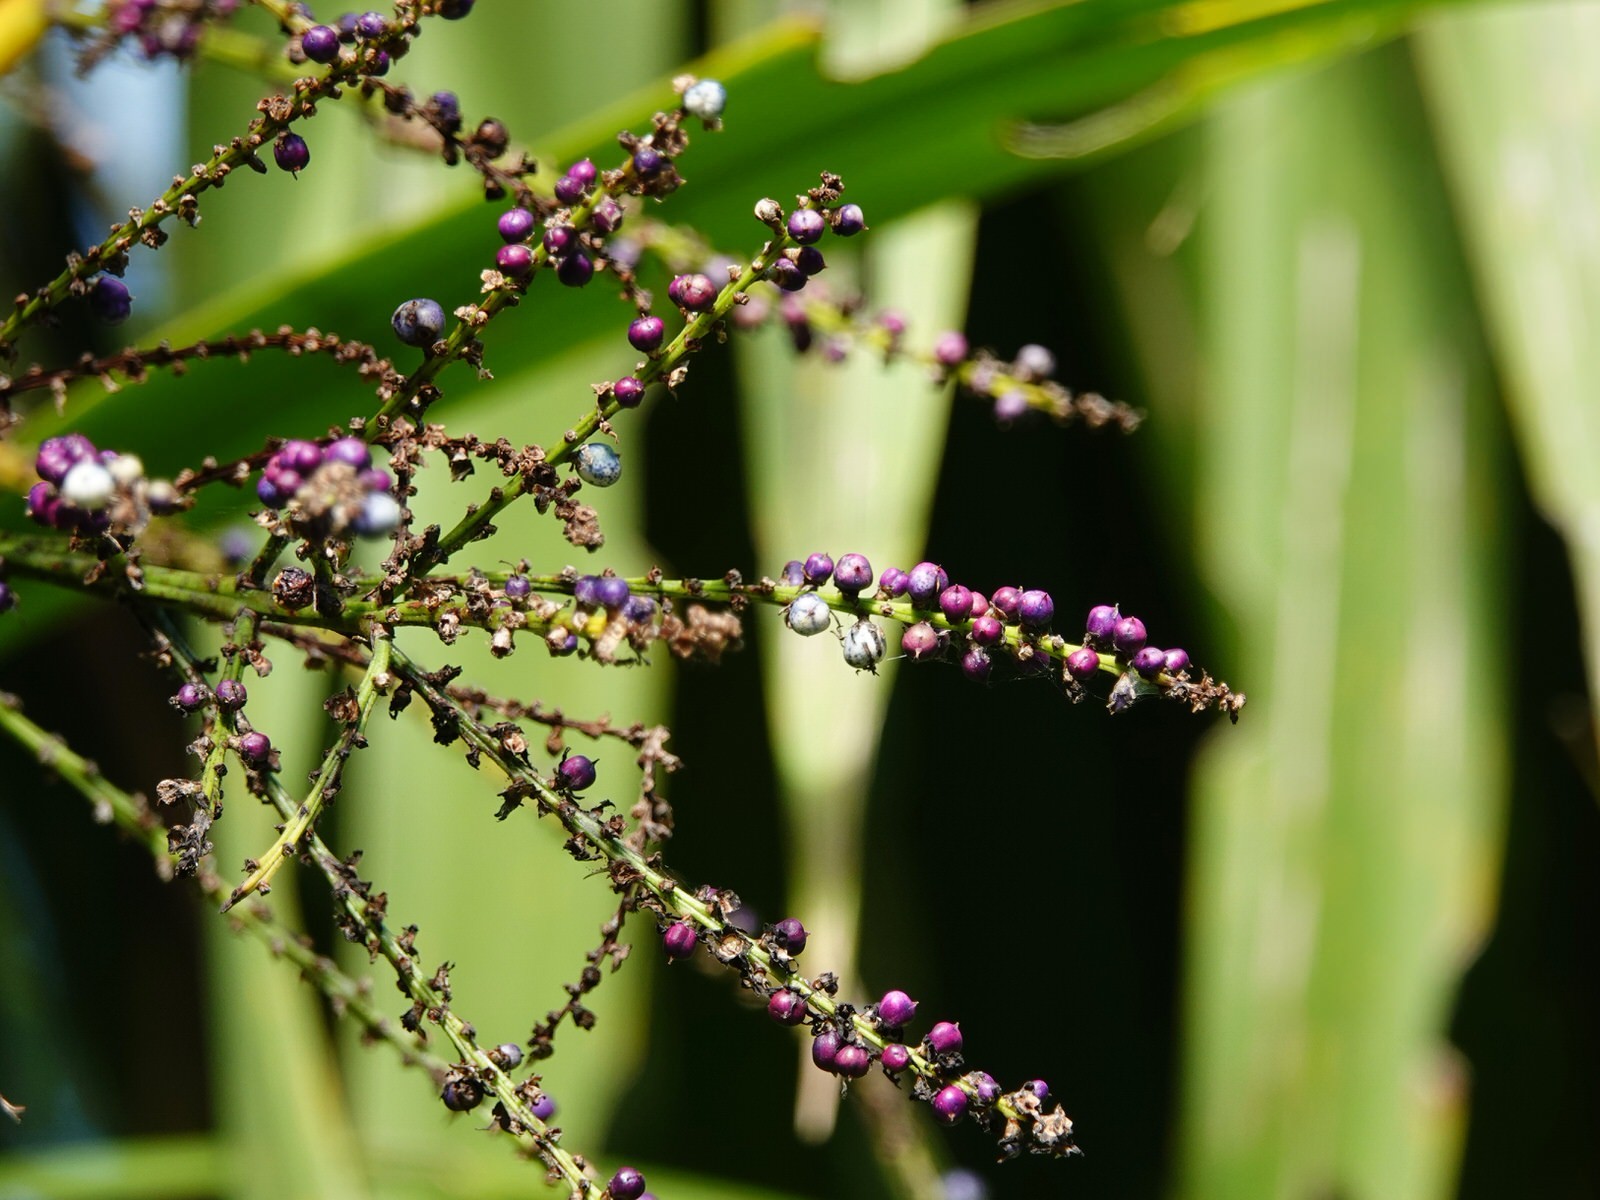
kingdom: Plantae
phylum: Tracheophyta
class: Liliopsida
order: Asparagales
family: Asparagaceae
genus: Cordyline
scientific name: Cordyline australis
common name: Cabbage-palm
